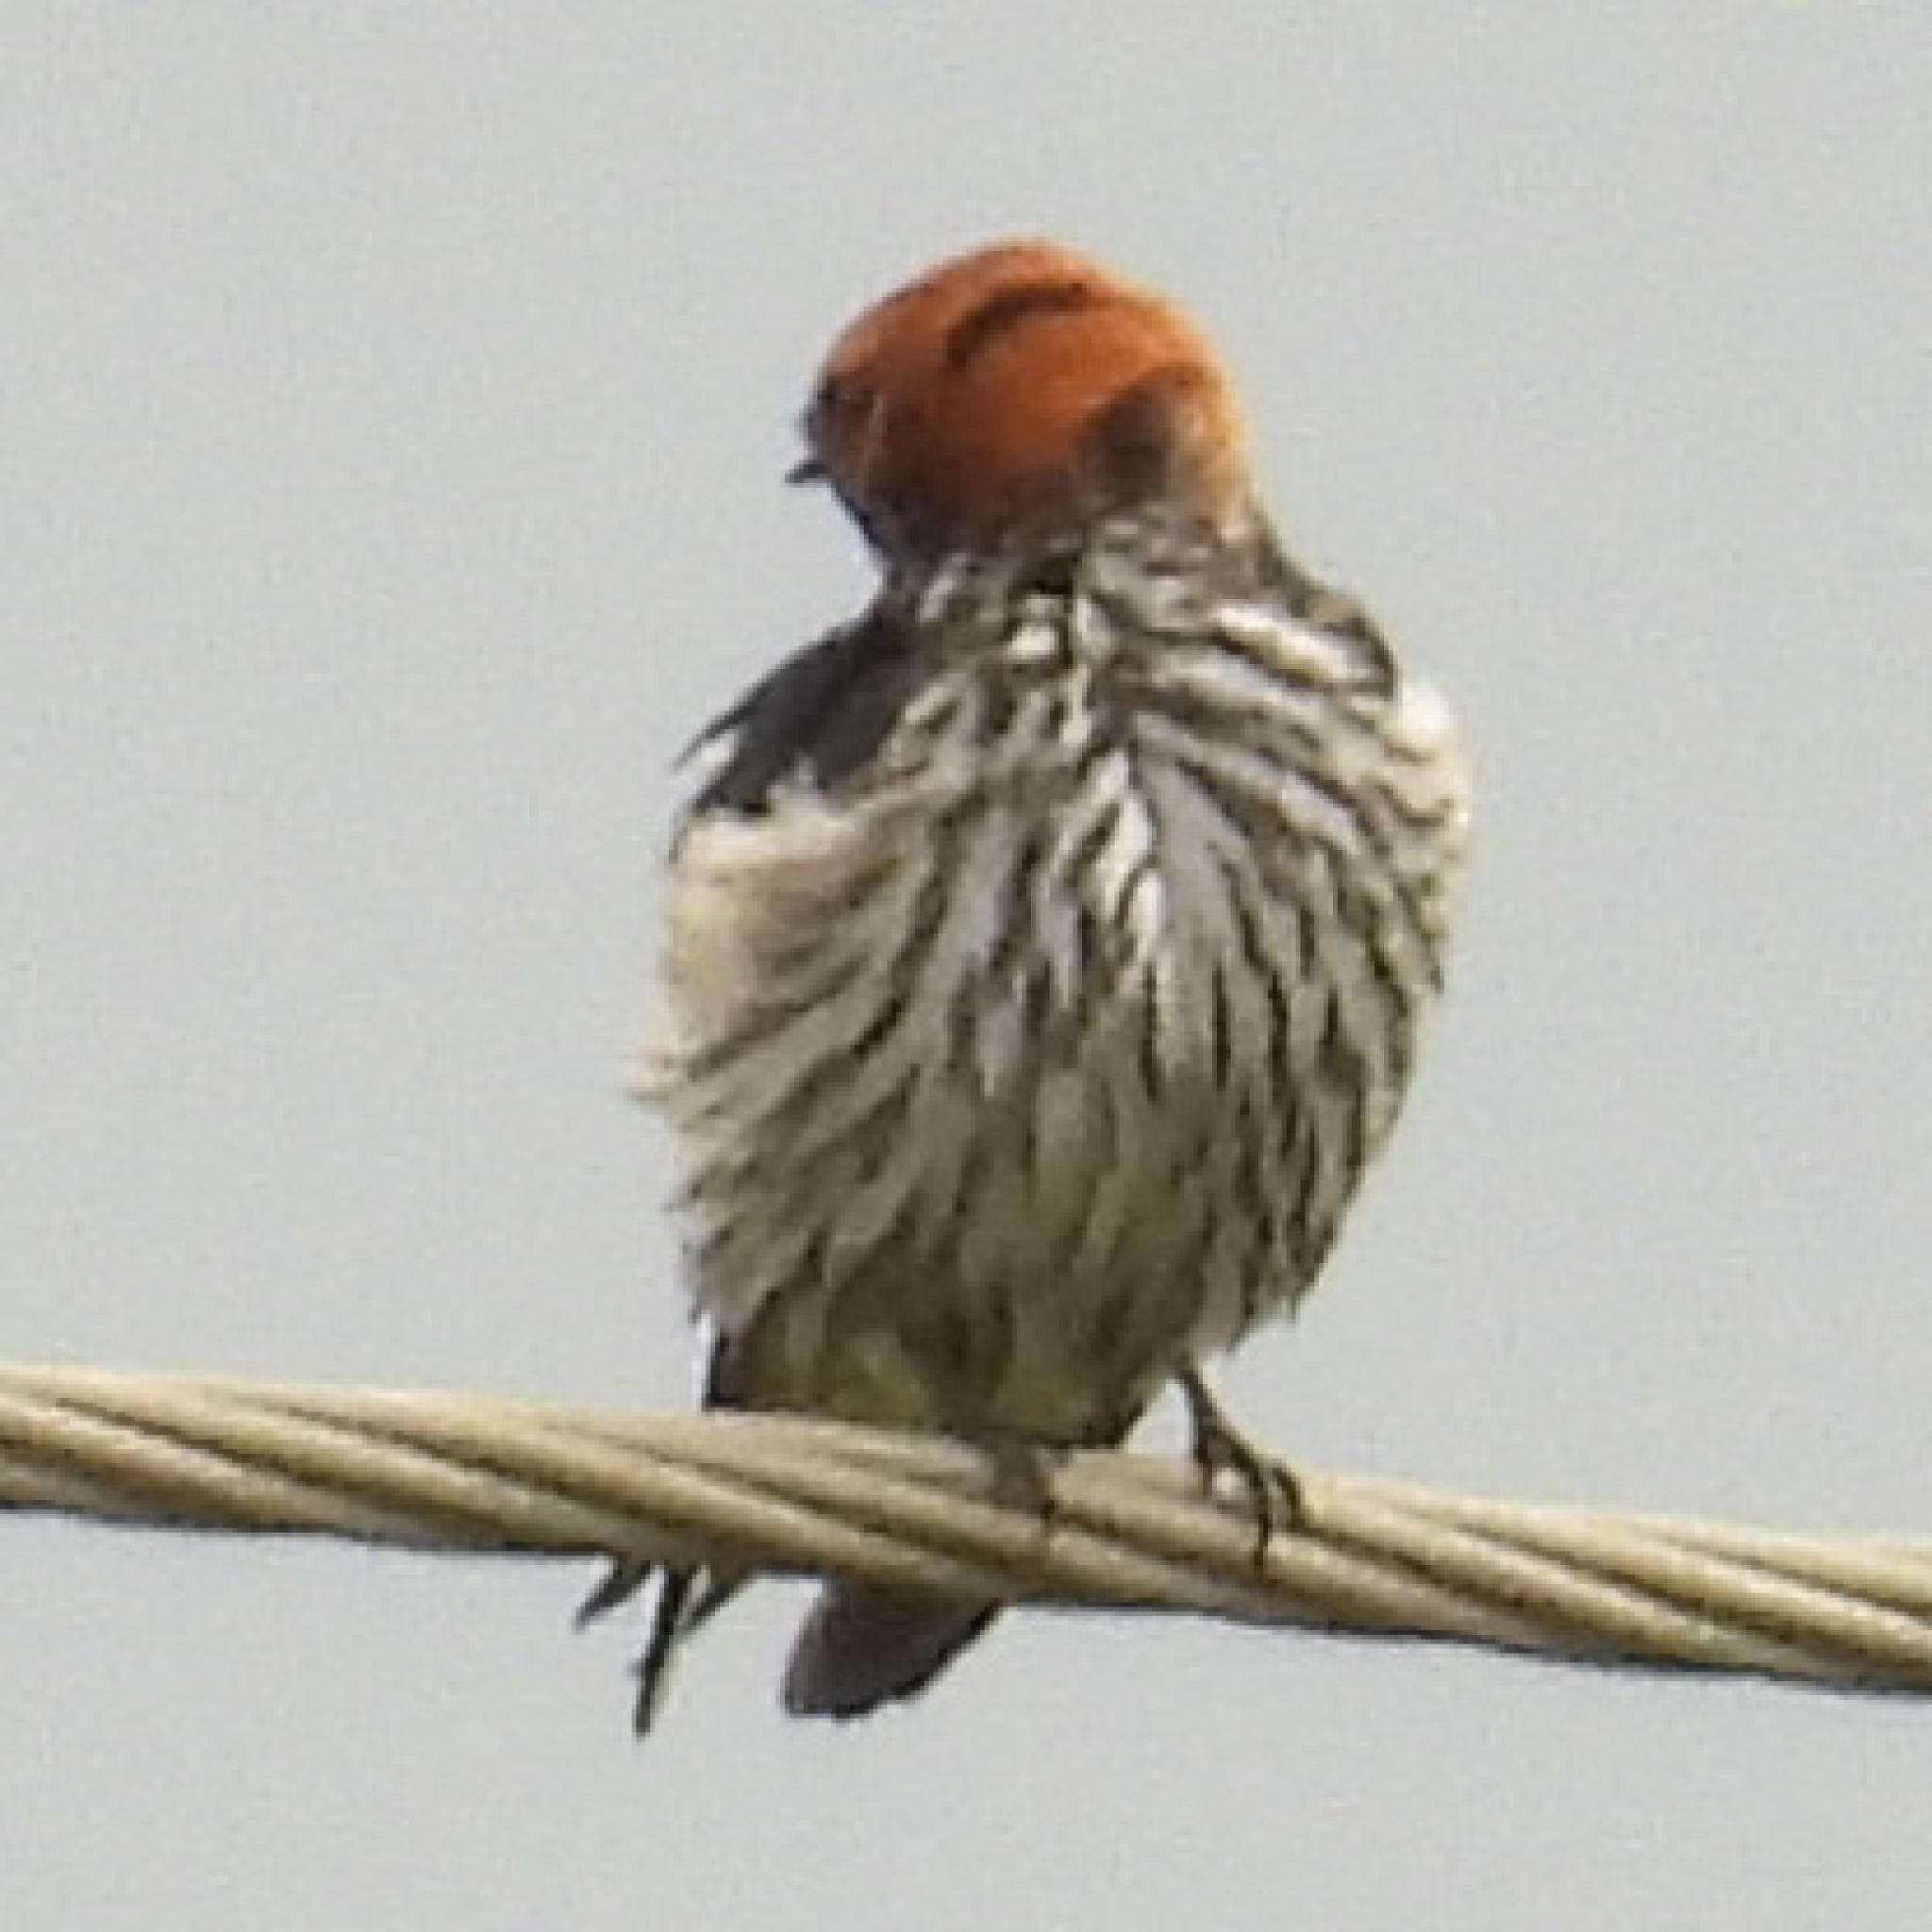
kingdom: Animalia
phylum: Chordata
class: Aves
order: Passeriformes
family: Hirundinidae
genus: Cecropis
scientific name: Cecropis abyssinica
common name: Lesser striped-swallow
